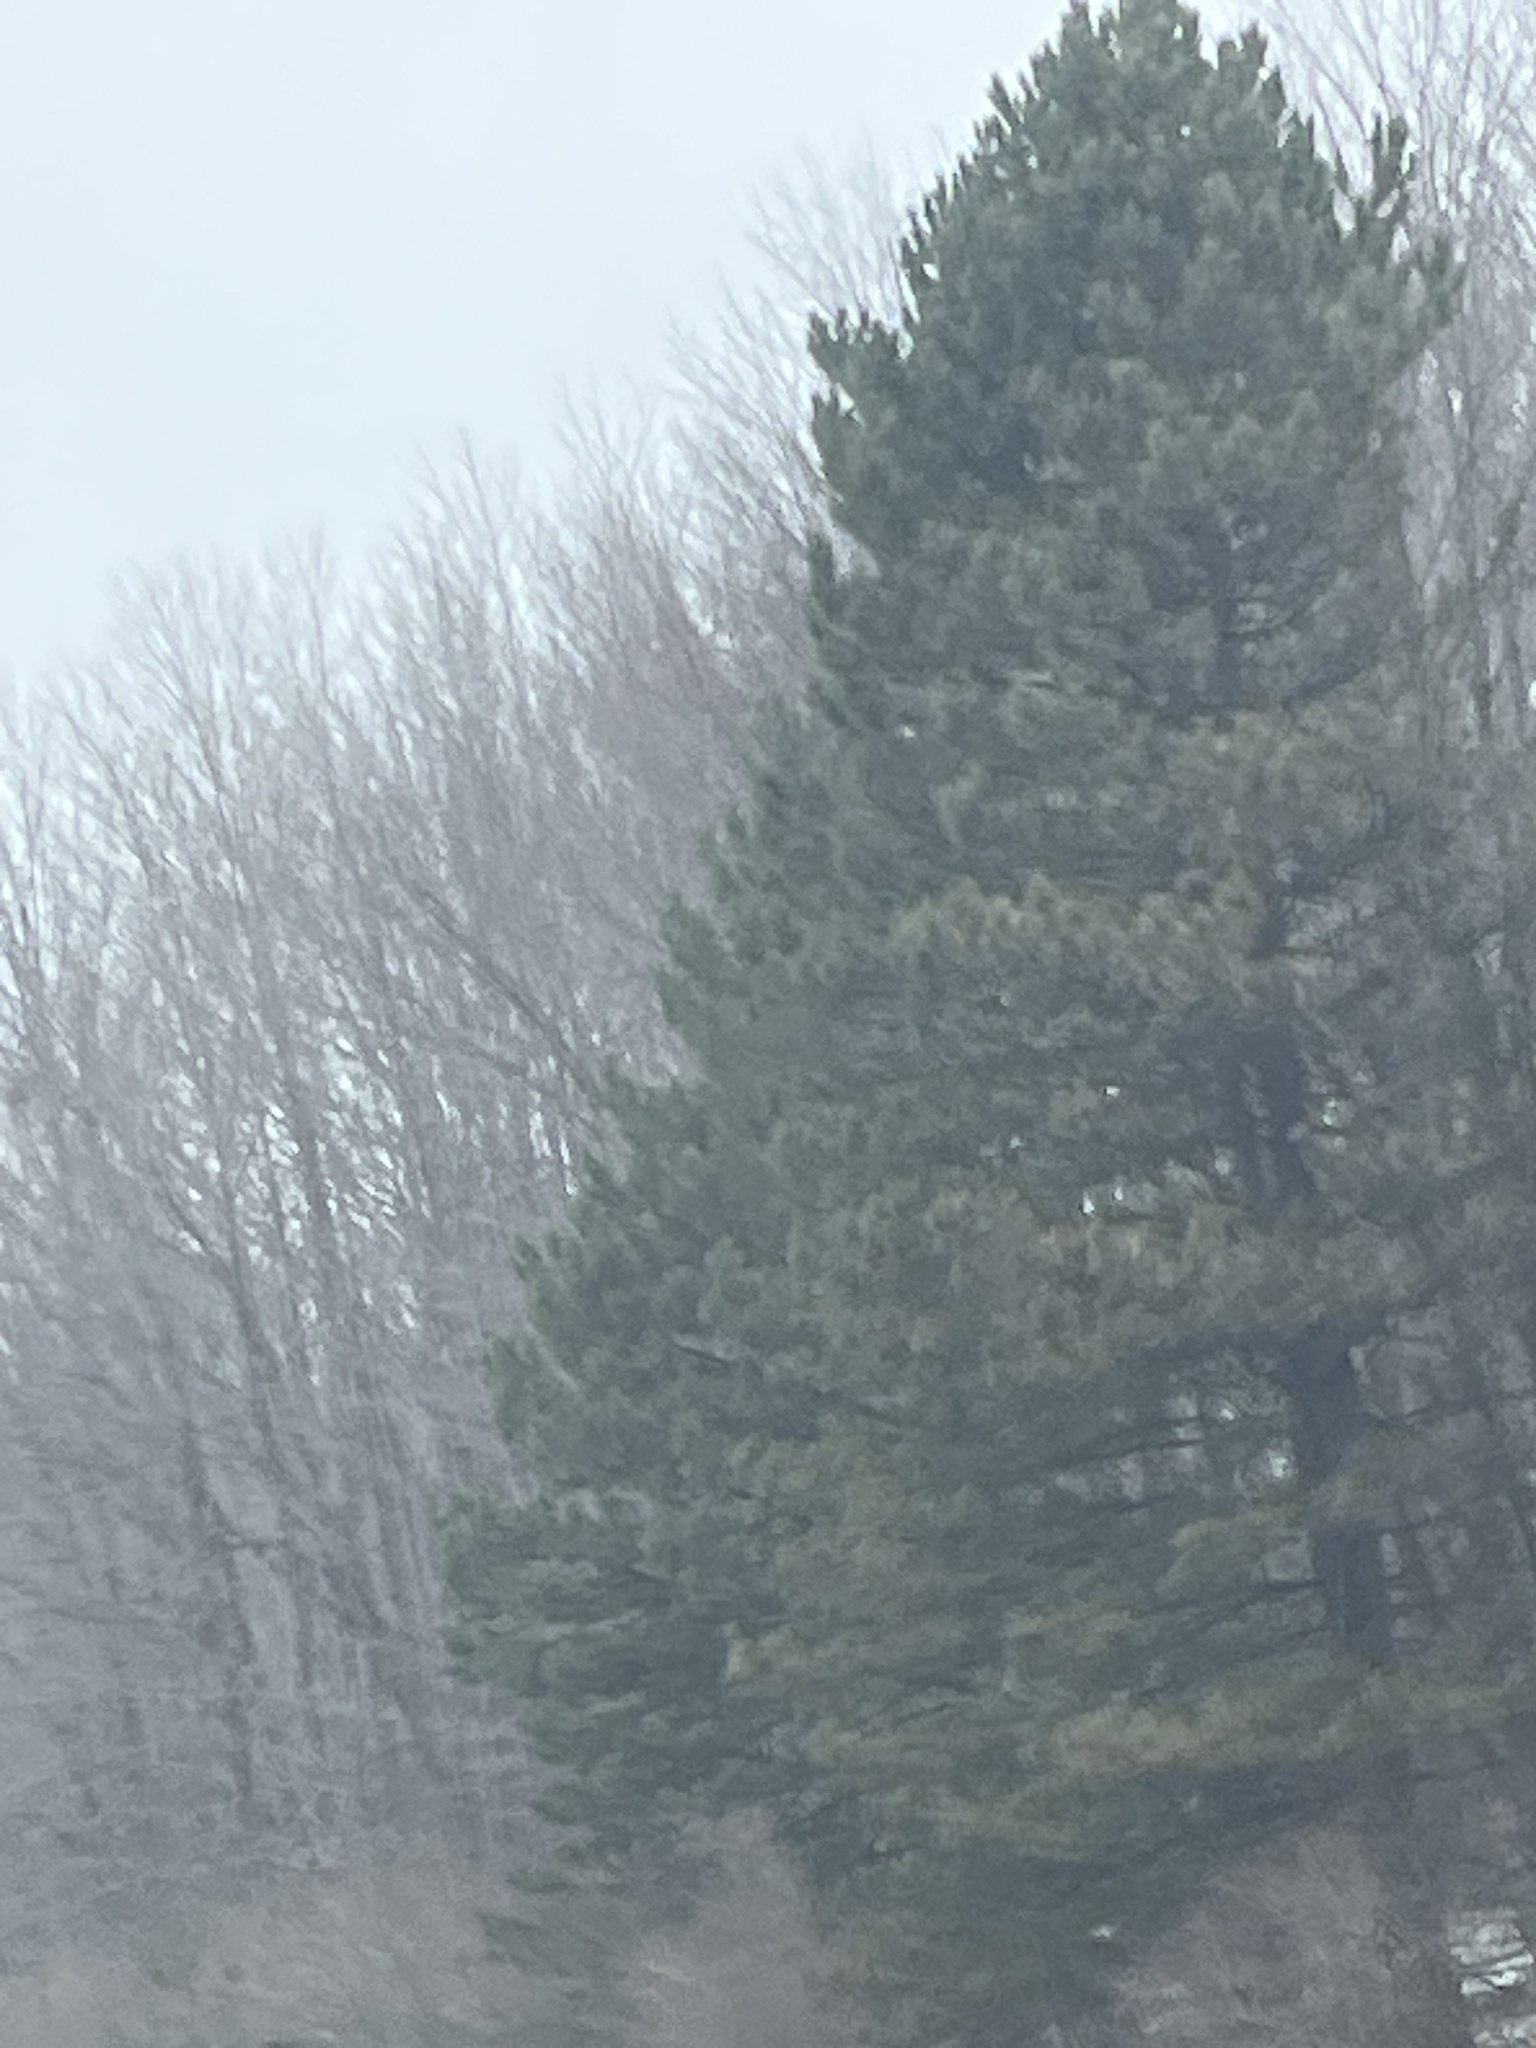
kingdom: Plantae
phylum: Tracheophyta
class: Pinopsida
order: Pinales
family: Pinaceae
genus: Pinus
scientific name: Pinus strobus
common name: Weymouth pine
